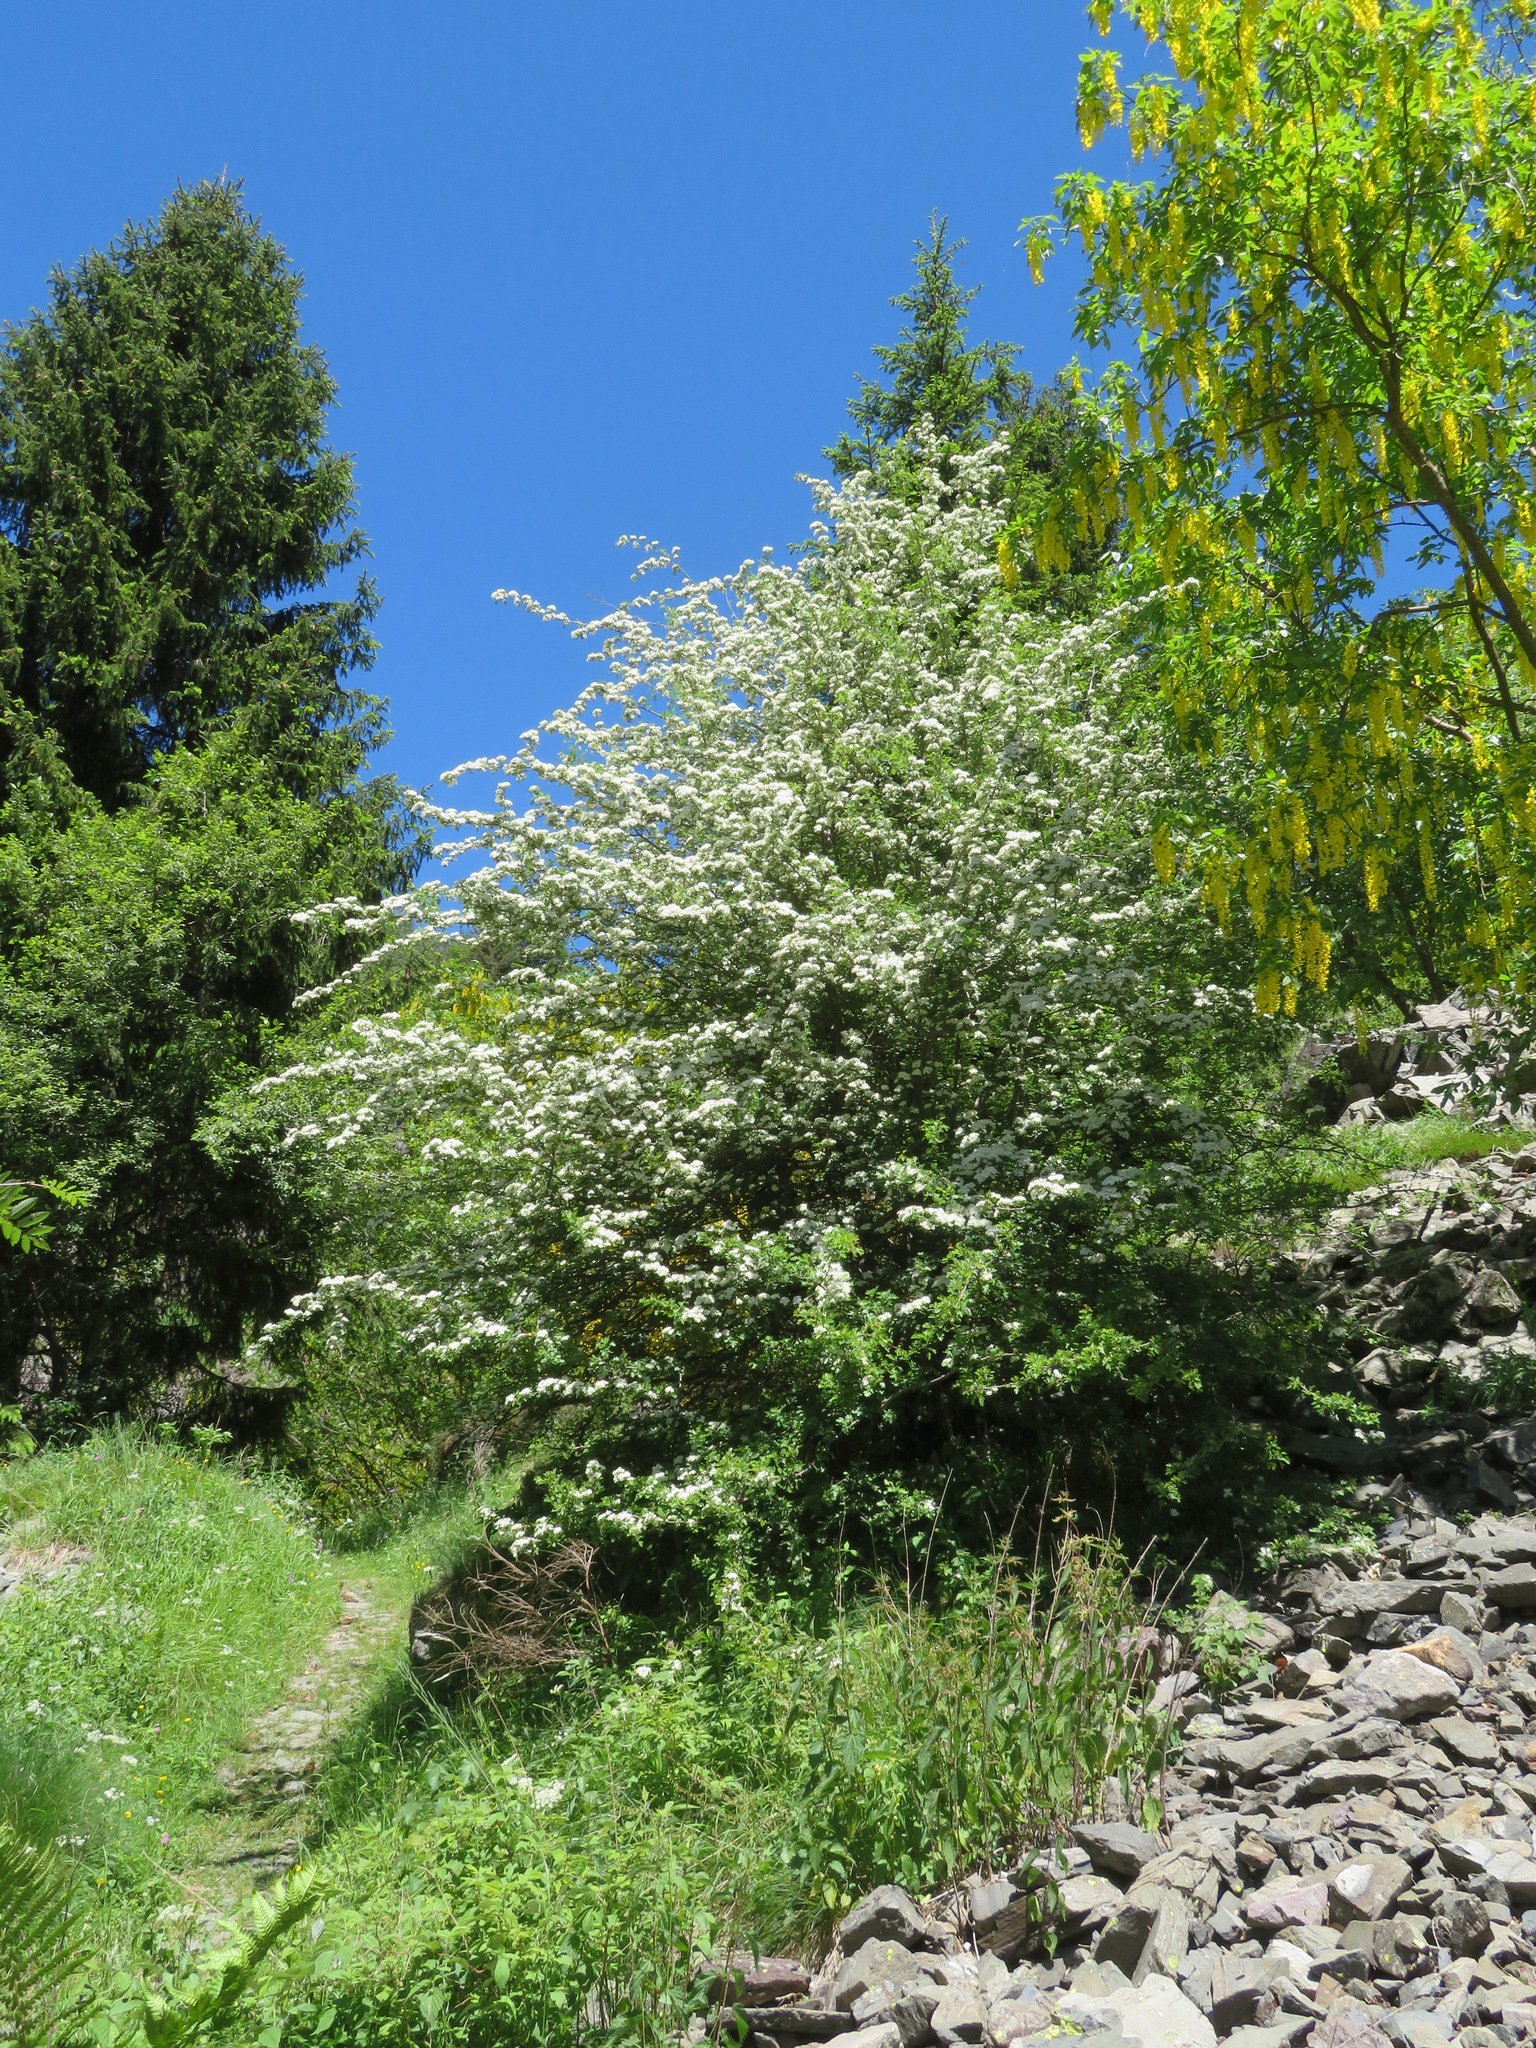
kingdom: Plantae
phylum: Tracheophyta
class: Magnoliopsida
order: Rosales
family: Rosaceae
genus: Crataegus
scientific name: Crataegus monogyna
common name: Hawthorn
